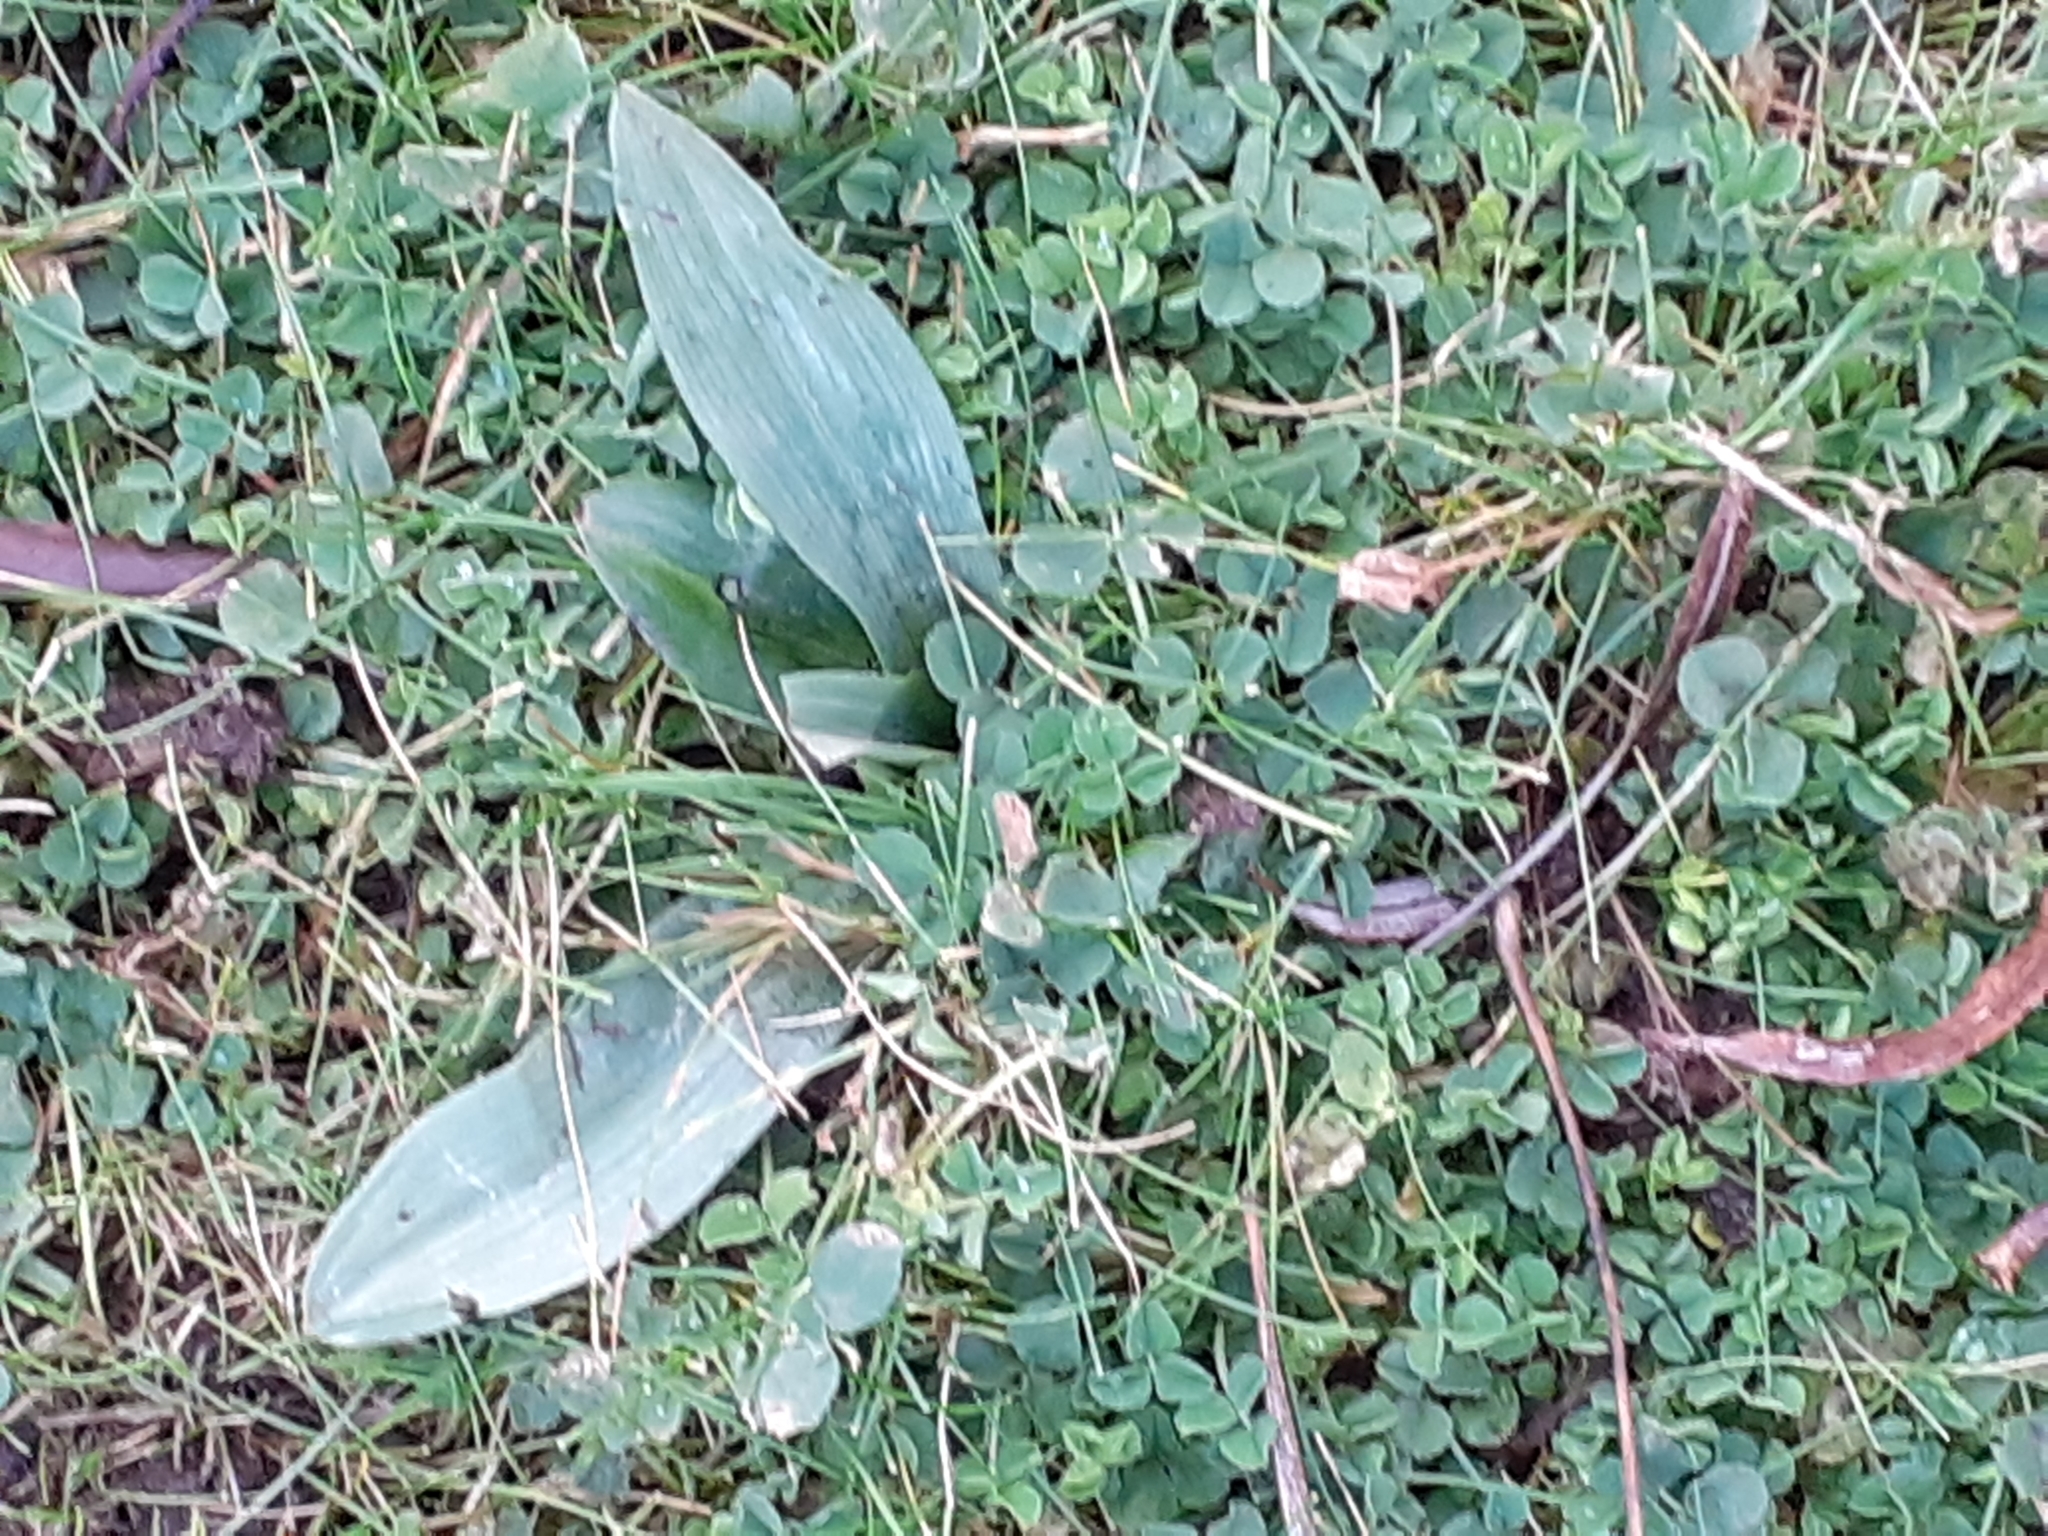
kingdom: Plantae
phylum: Tracheophyta
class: Liliopsida
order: Asparagales
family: Orchidaceae
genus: Ophrys
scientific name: Ophrys apifera
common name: Bee orchid
